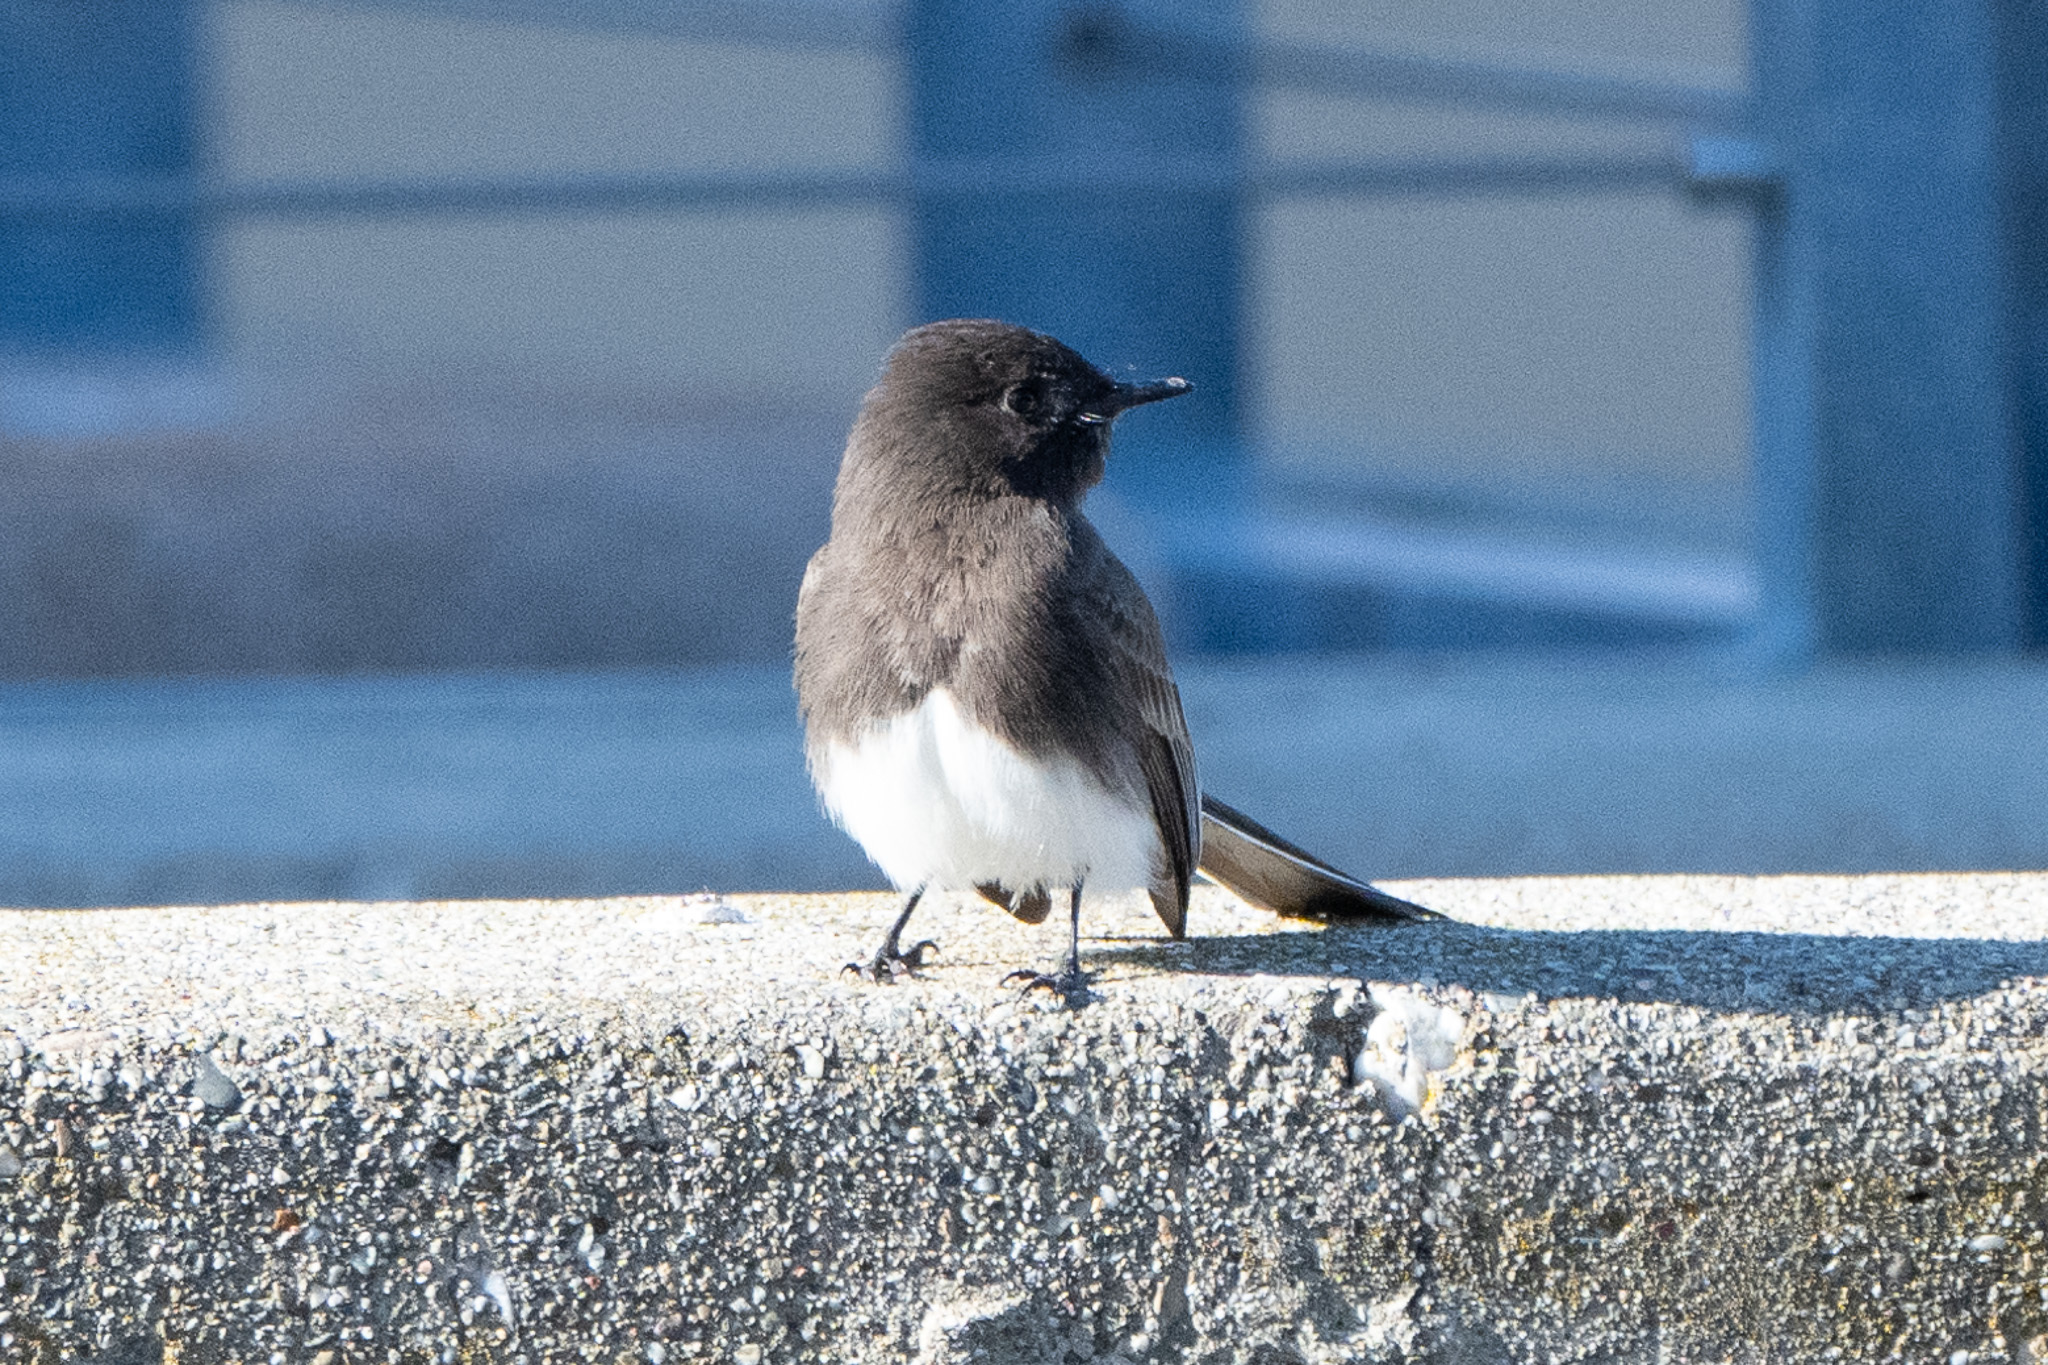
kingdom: Animalia
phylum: Chordata
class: Aves
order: Passeriformes
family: Tyrannidae
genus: Sayornis
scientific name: Sayornis nigricans
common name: Black phoebe
